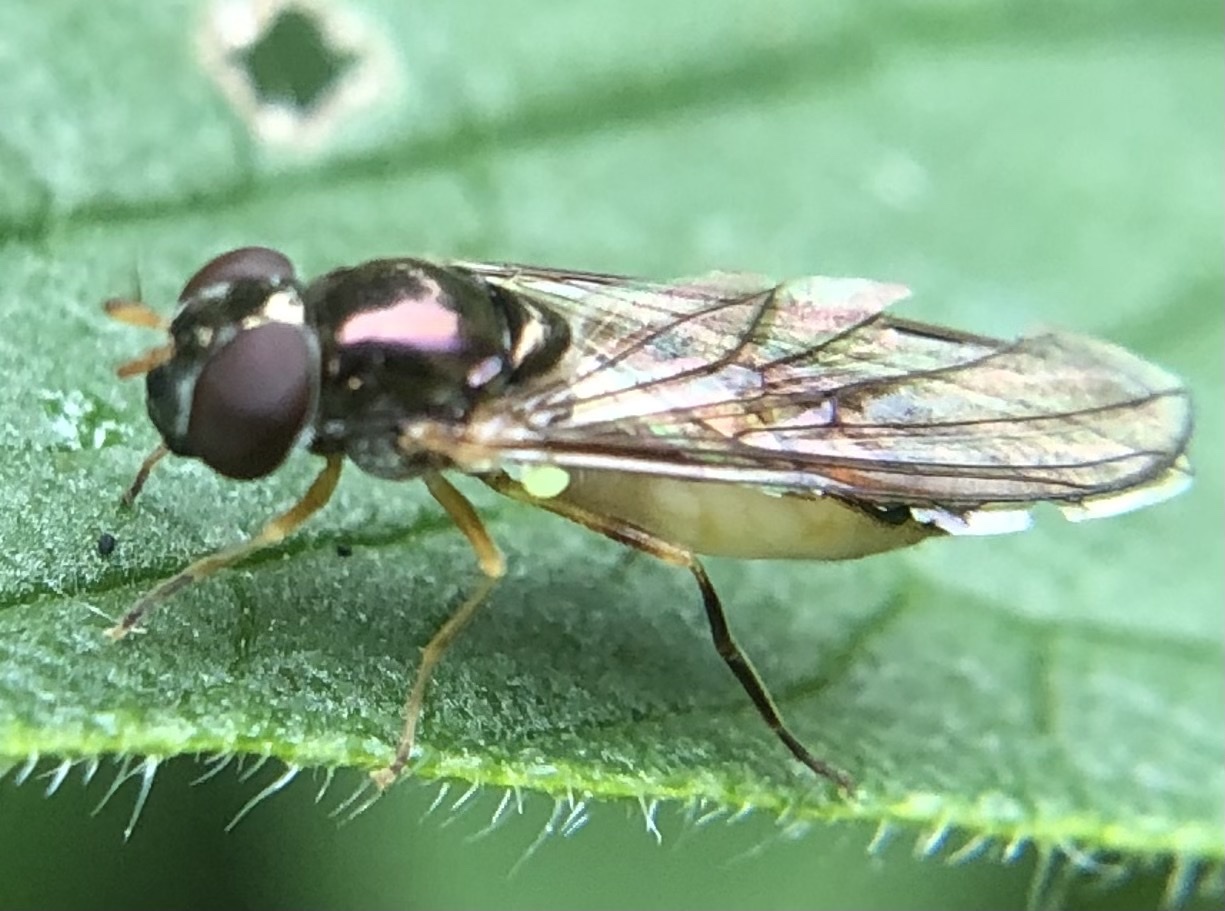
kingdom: Animalia
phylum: Arthropoda
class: Insecta
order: Diptera
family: Syrphidae
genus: Melanostoma
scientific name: Melanostoma
